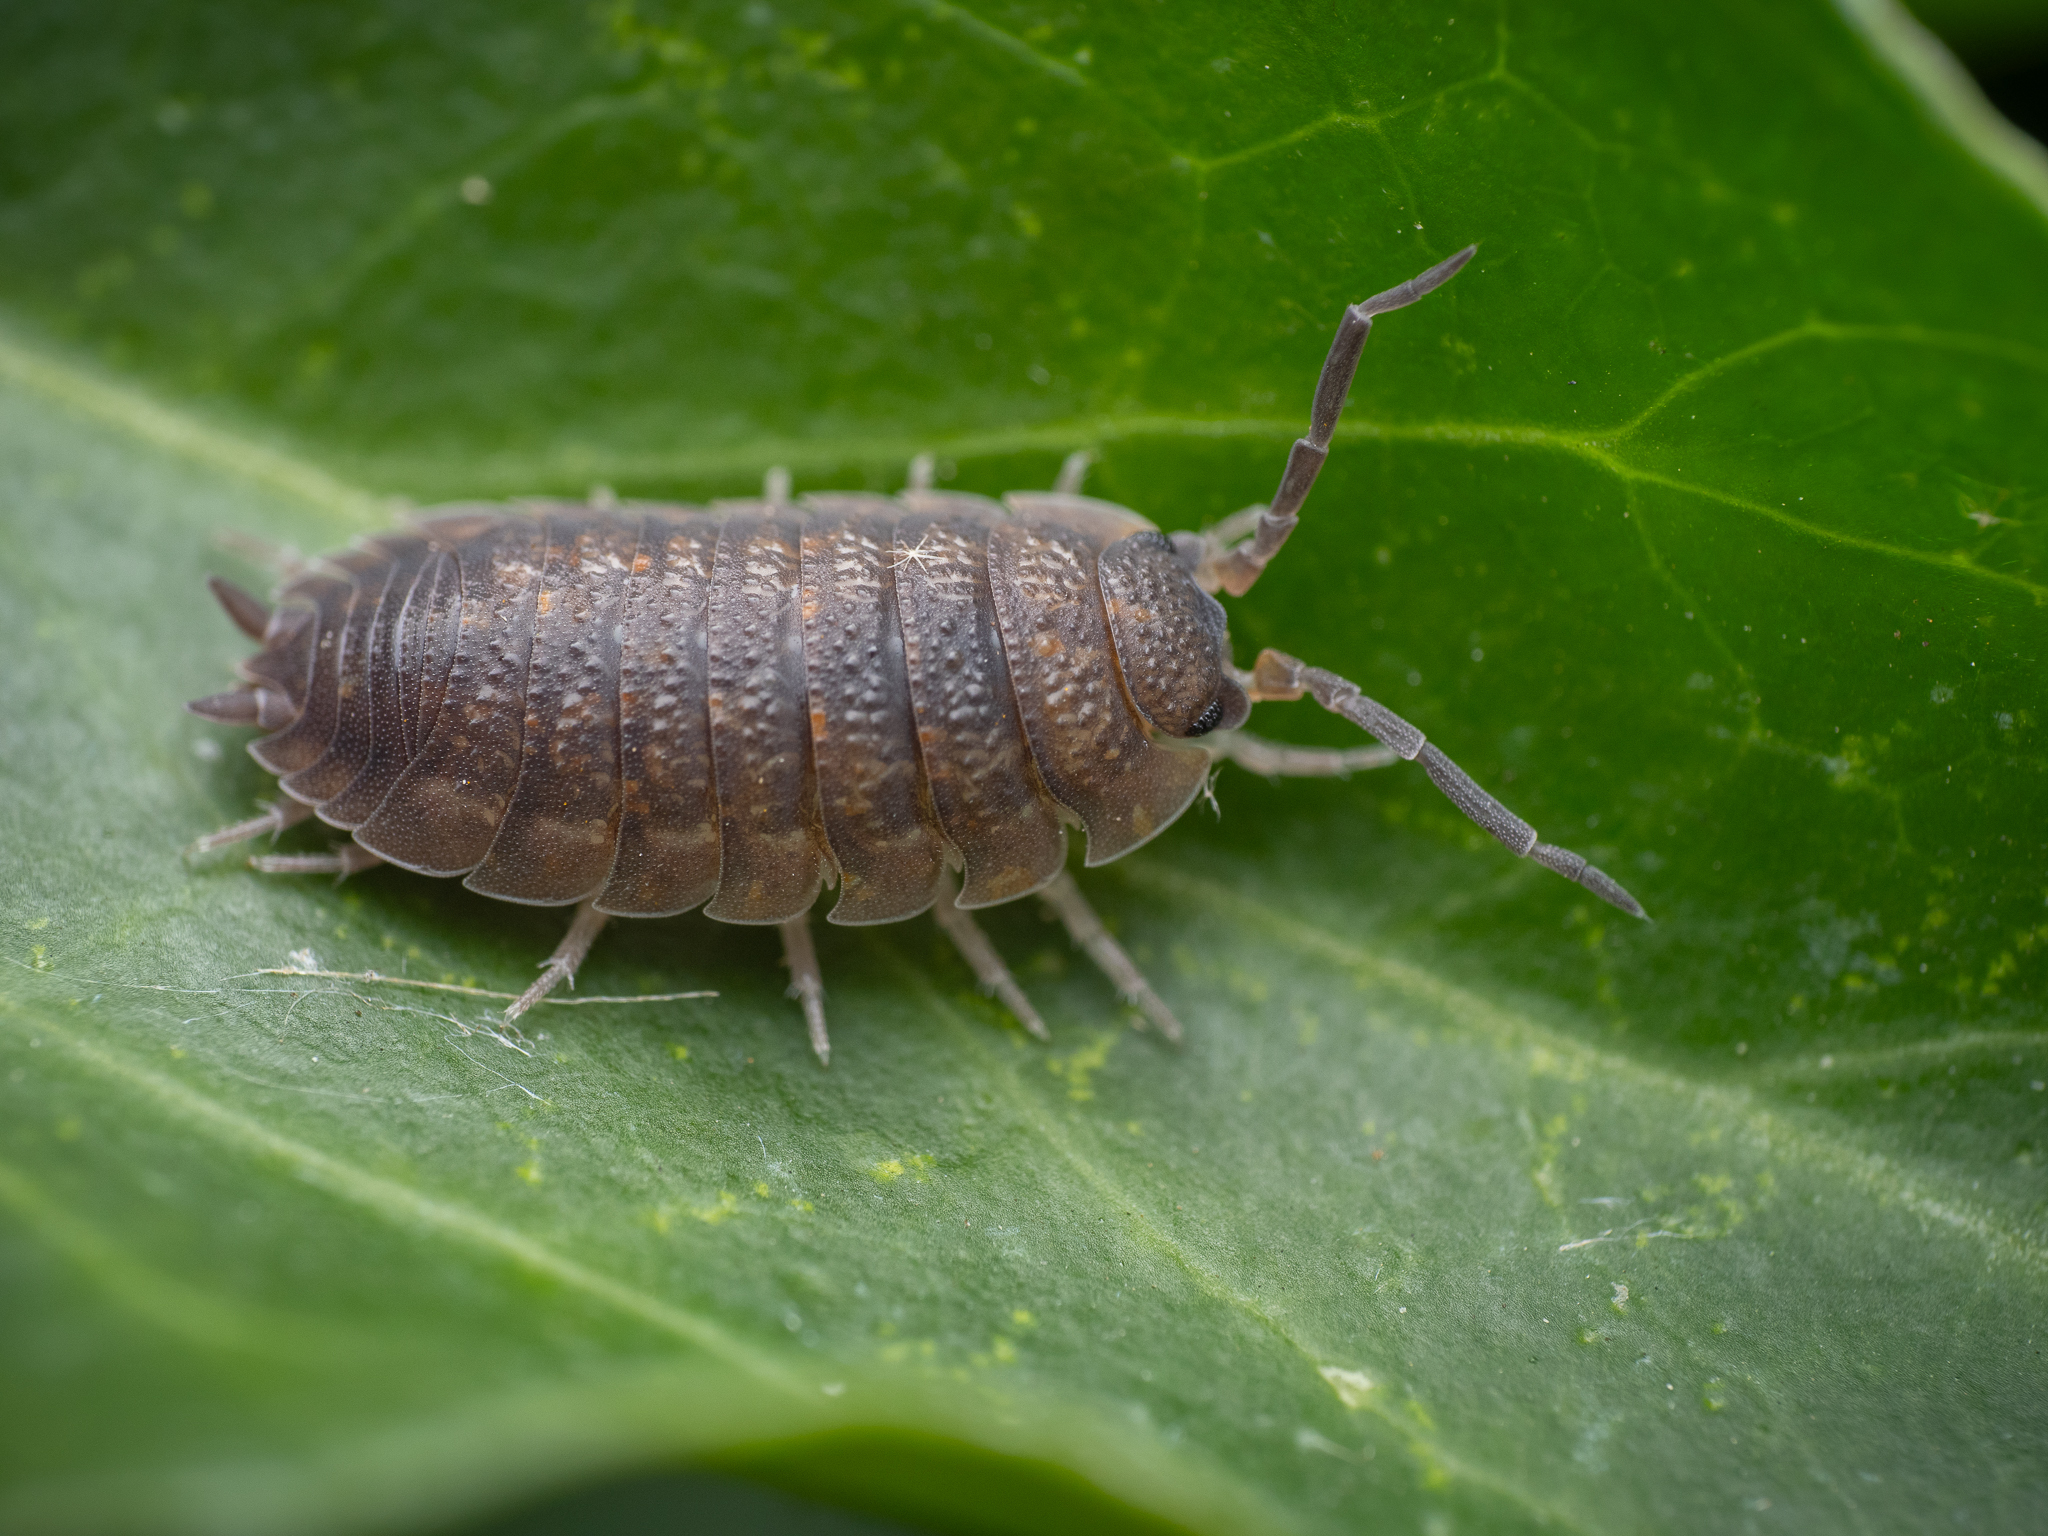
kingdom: Animalia
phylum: Arthropoda
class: Malacostraca
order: Isopoda
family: Porcellionidae
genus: Porcellio
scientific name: Porcellio scaber
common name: Common rough woodlouse
